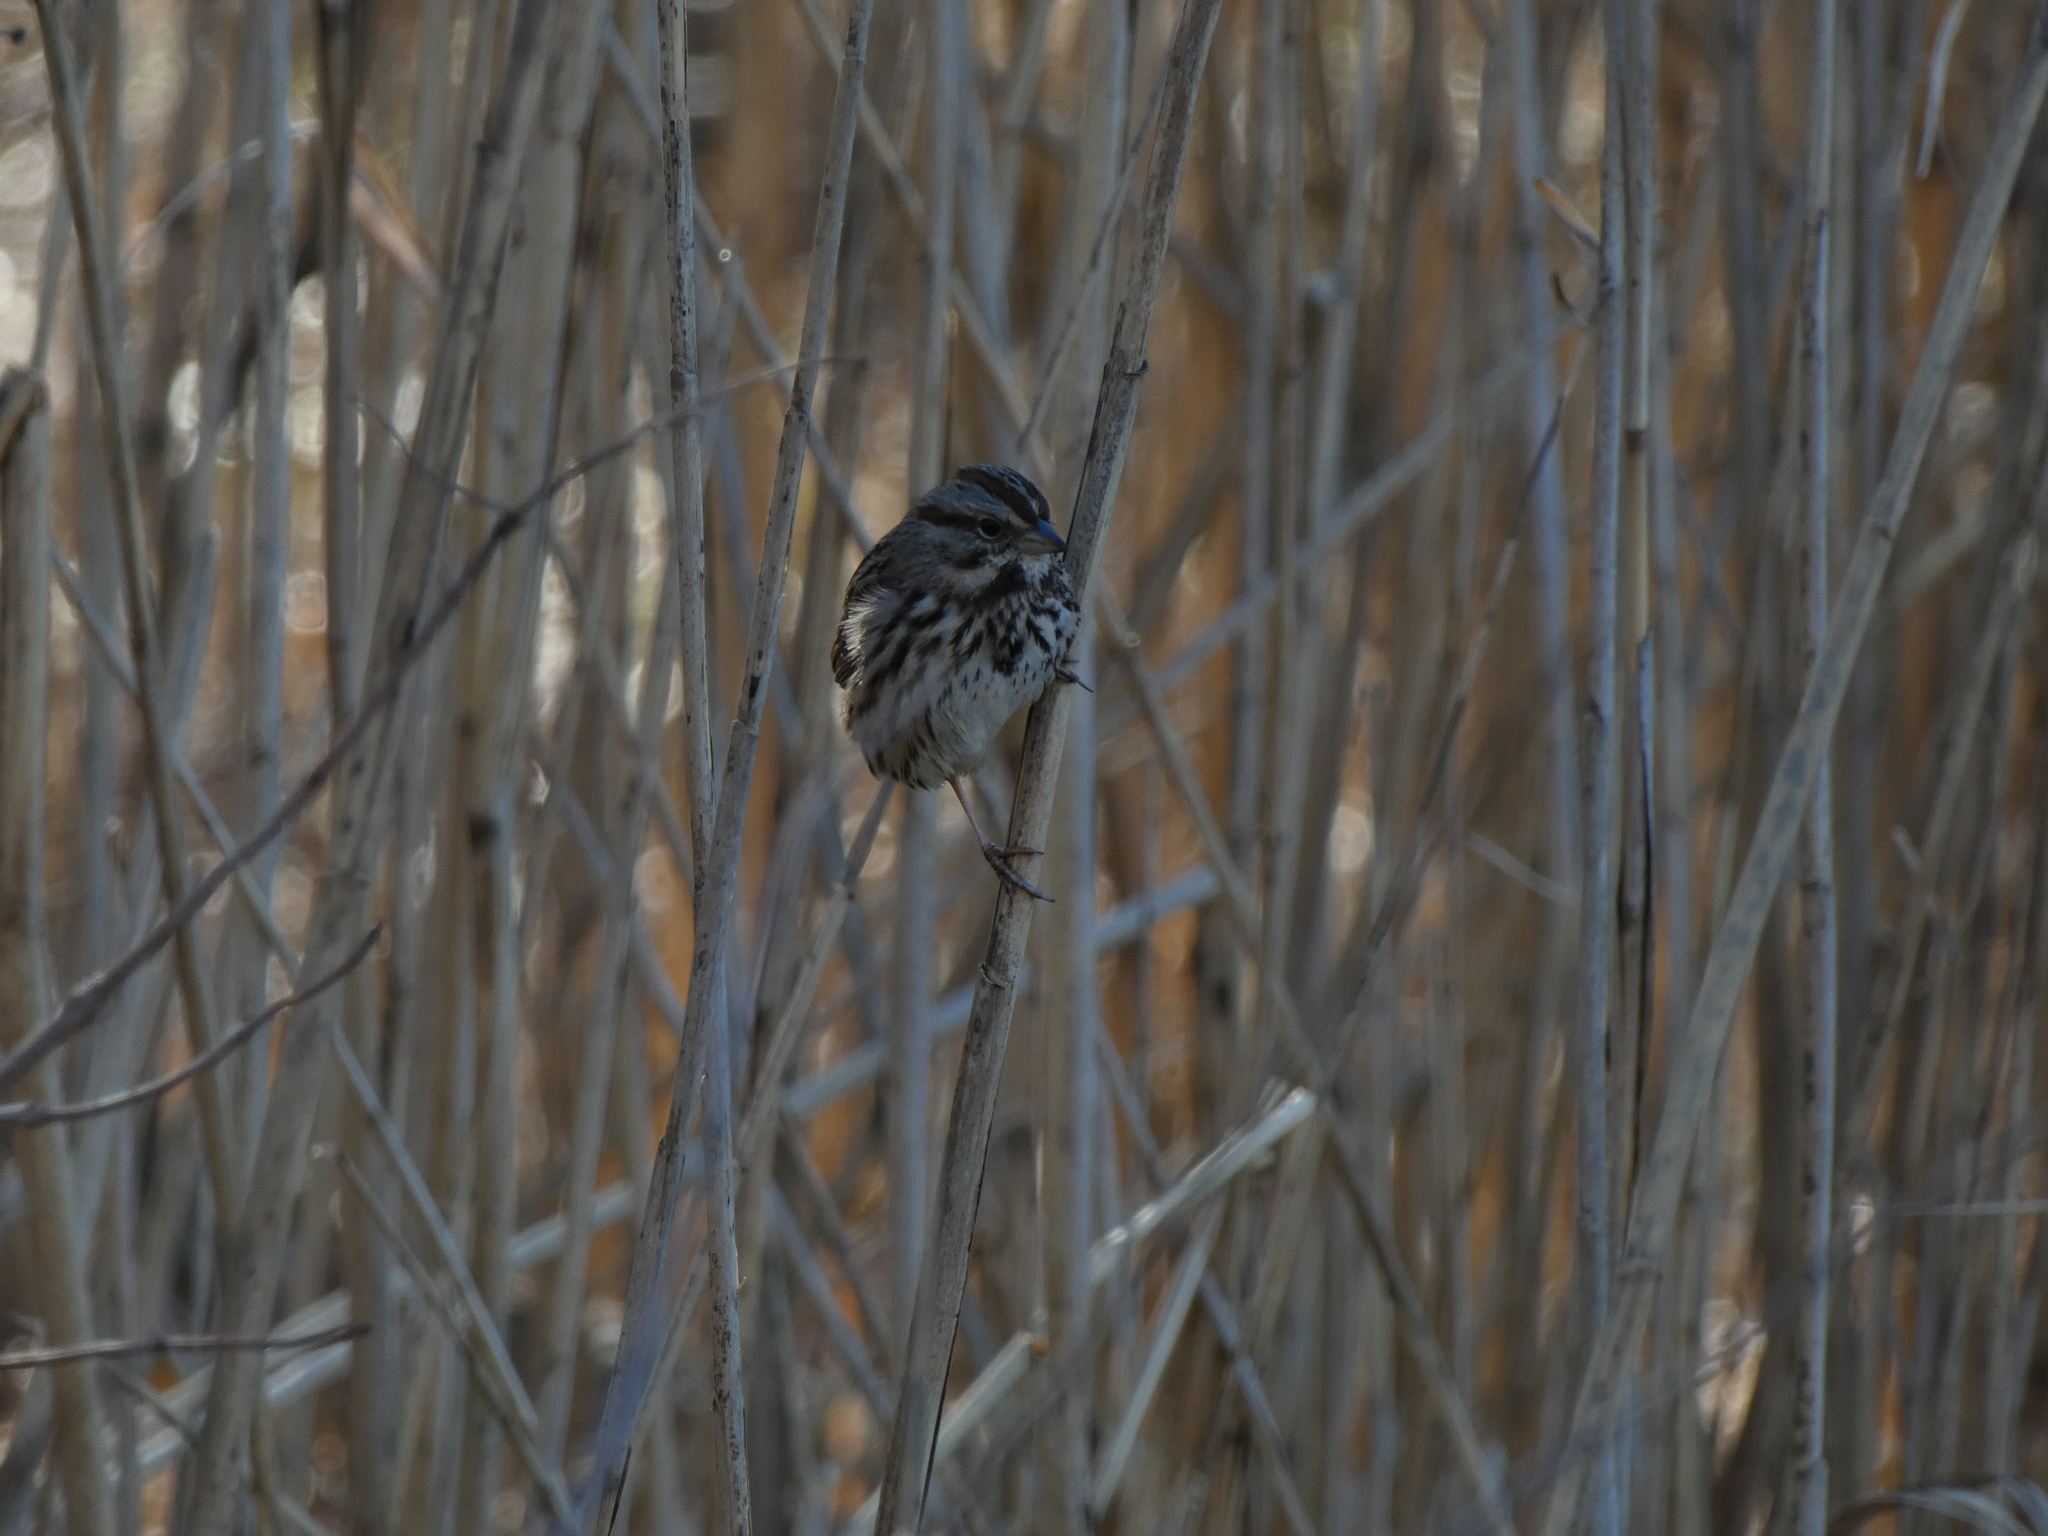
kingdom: Animalia
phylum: Chordata
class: Aves
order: Passeriformes
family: Passerellidae
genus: Melospiza
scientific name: Melospiza melodia
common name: Song sparrow
